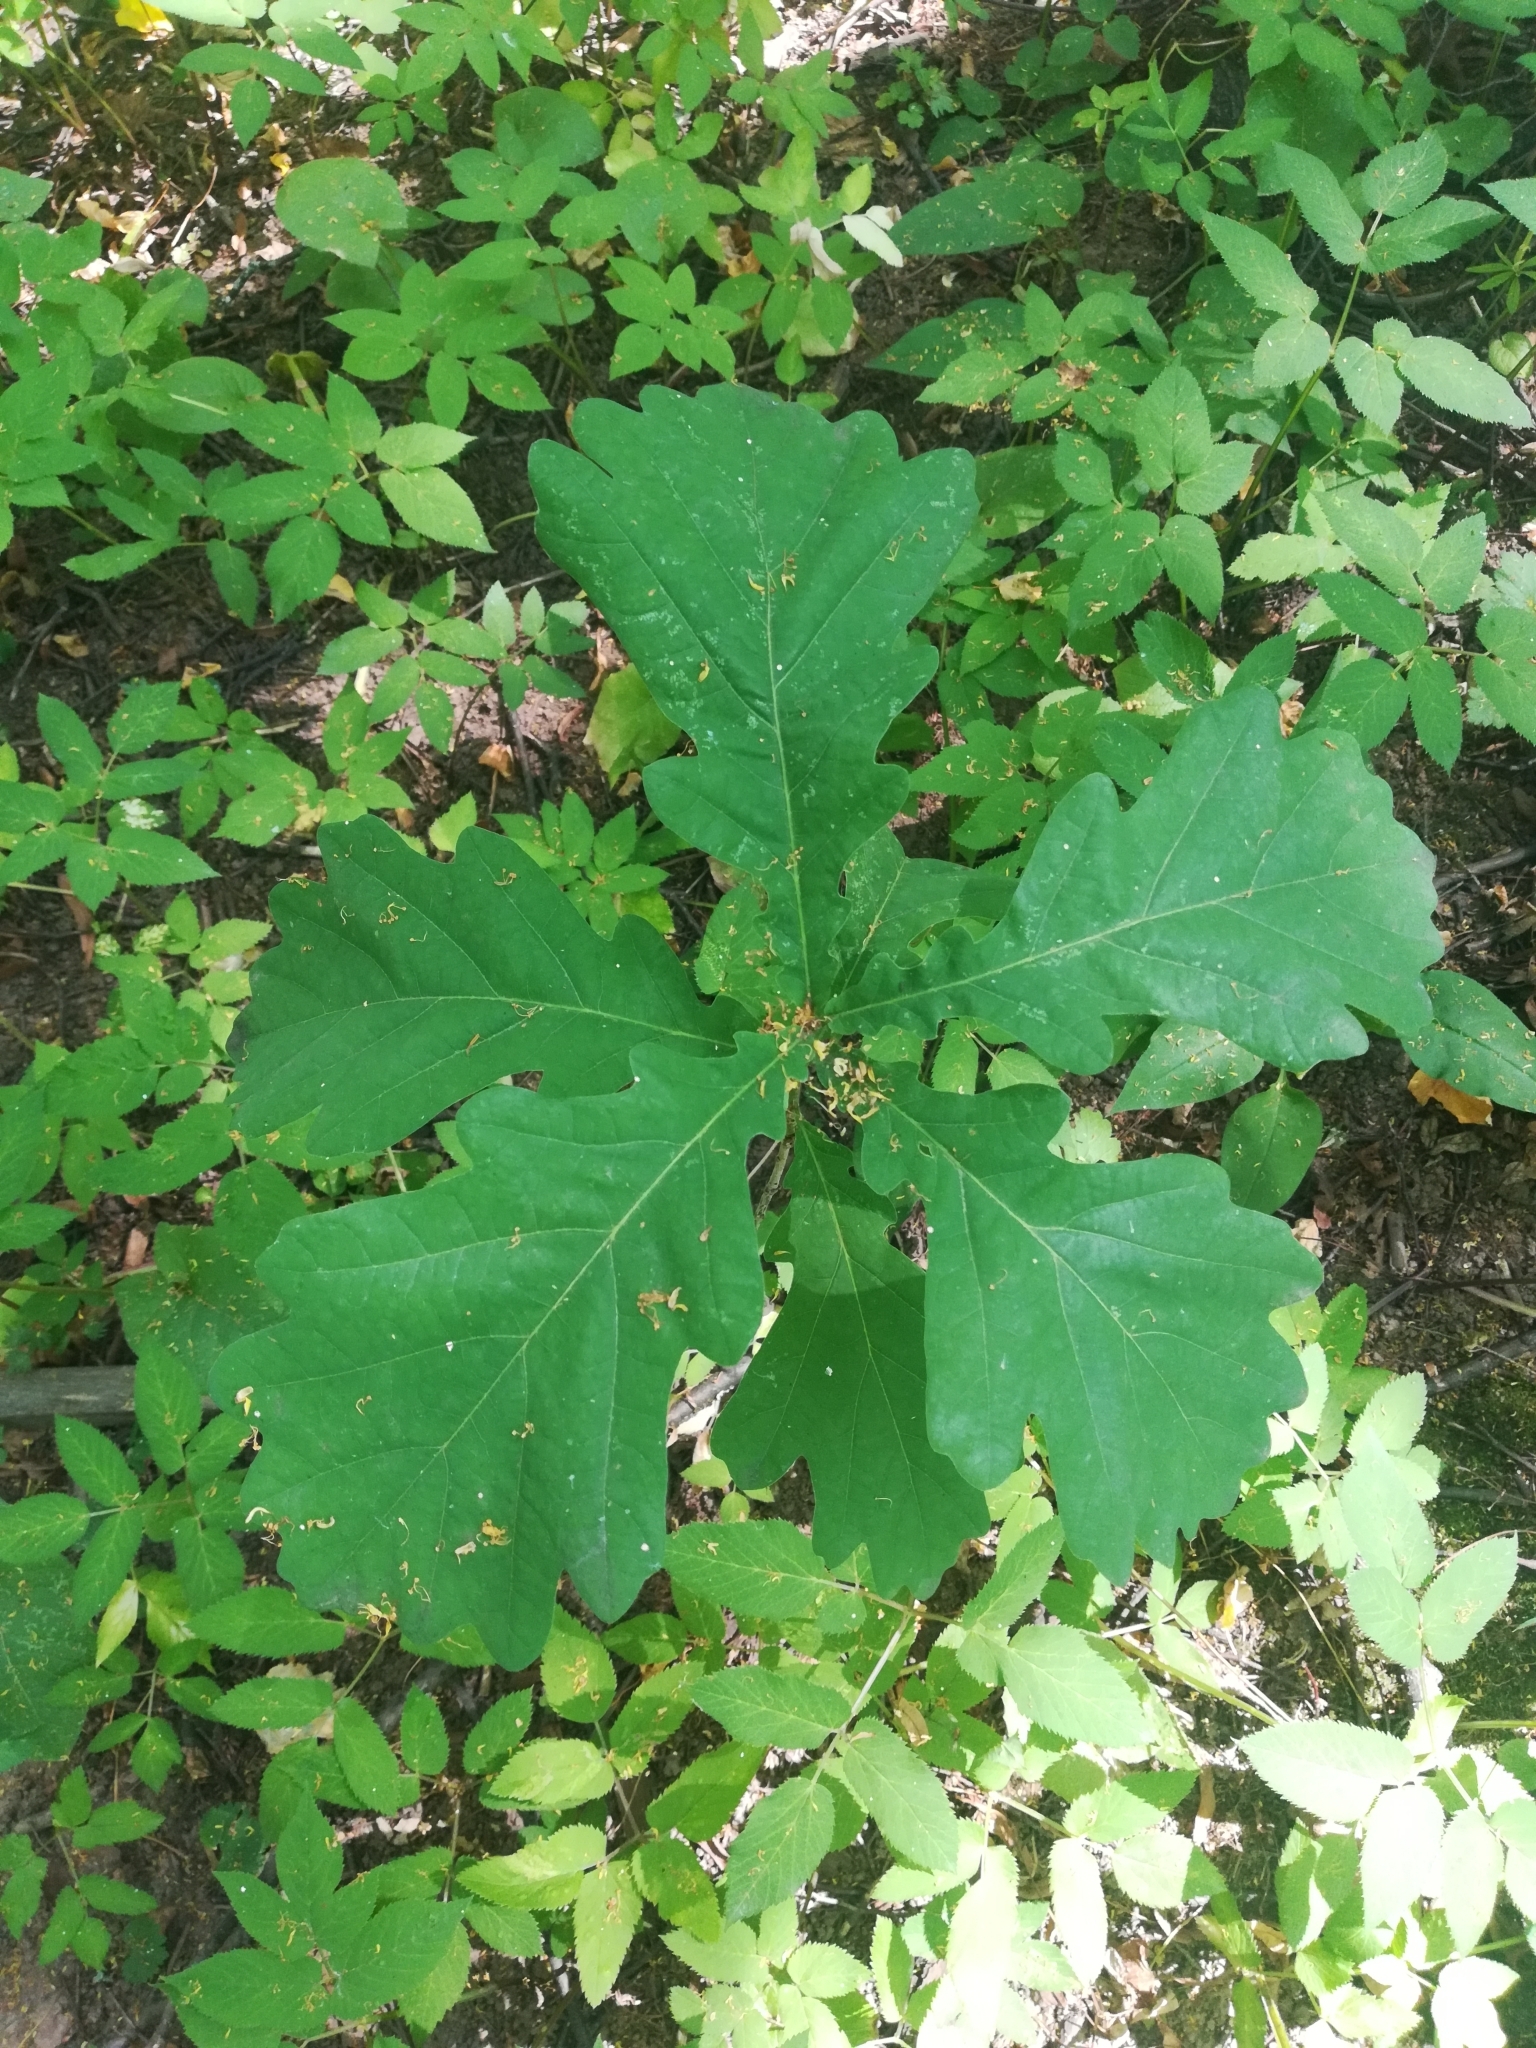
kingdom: Plantae
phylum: Tracheophyta
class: Magnoliopsida
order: Fagales
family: Fagaceae
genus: Quercus
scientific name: Quercus robur
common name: Pedunculate oak
